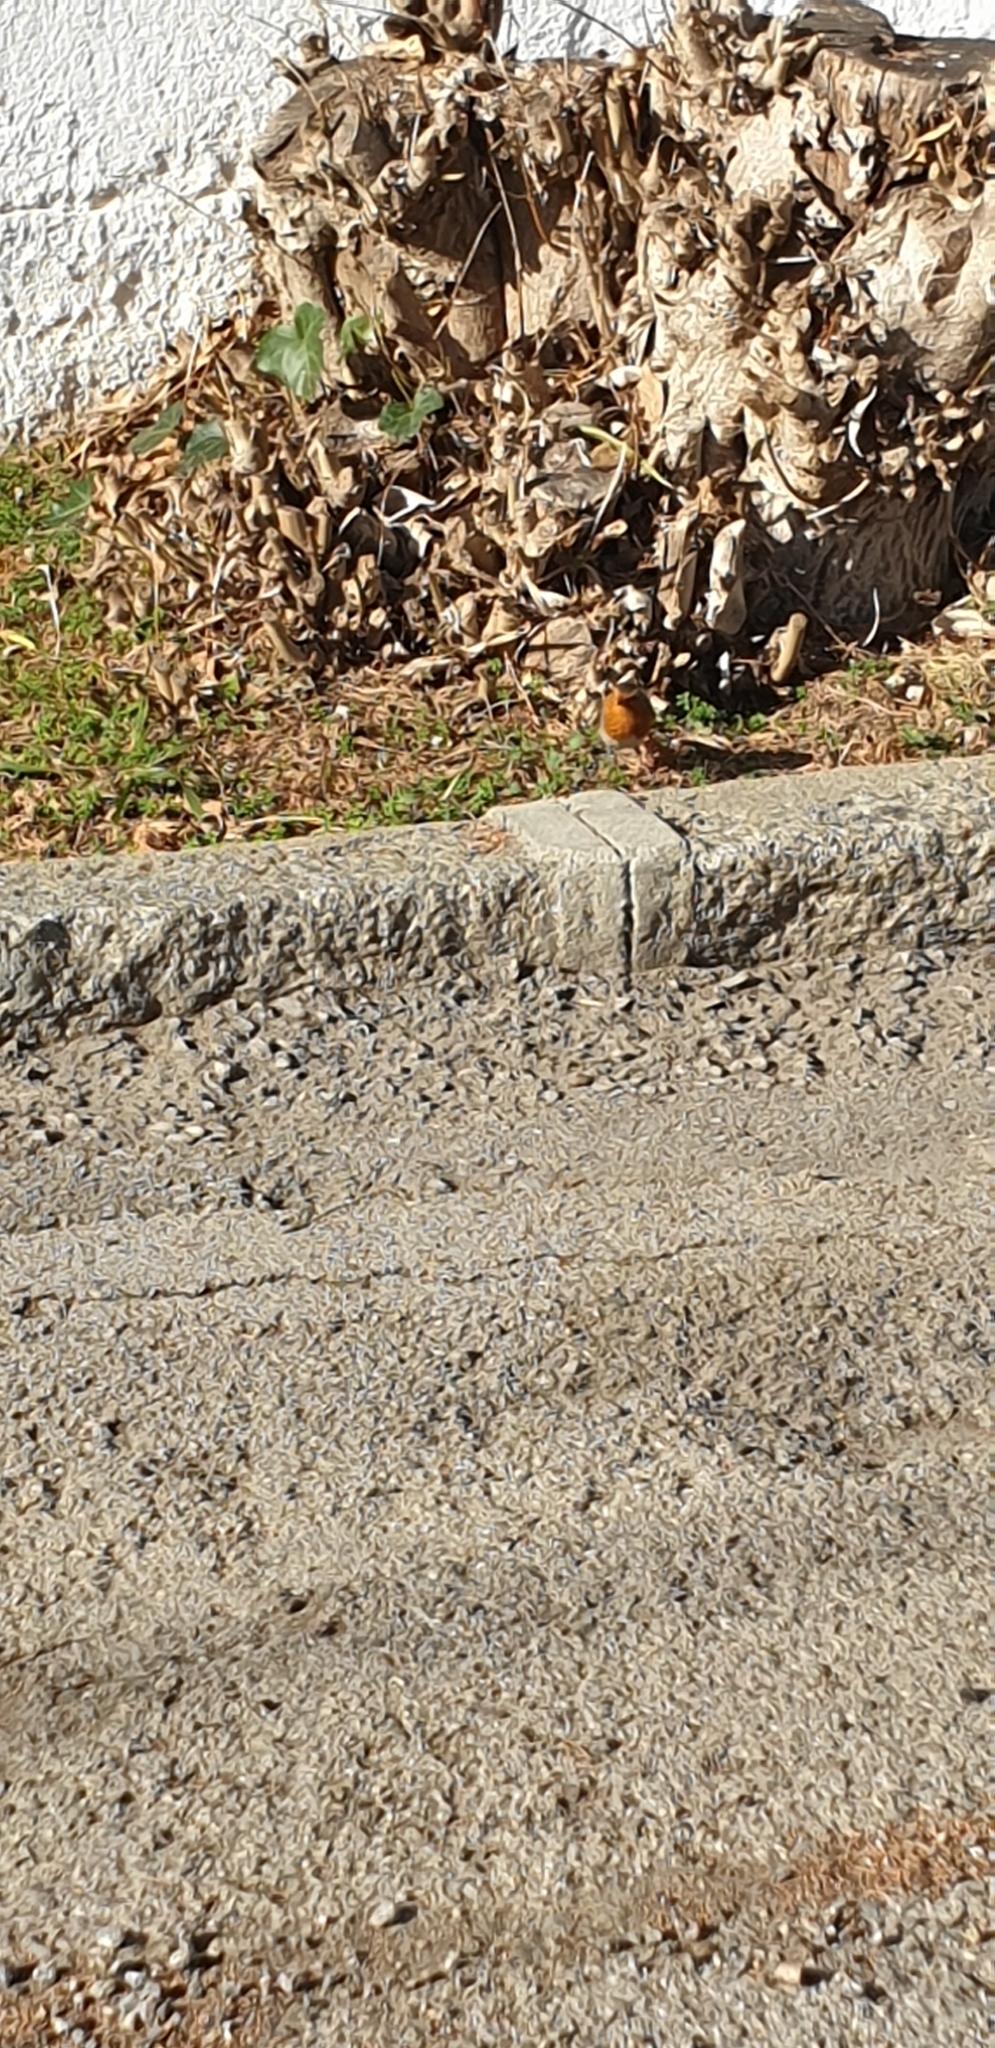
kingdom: Animalia
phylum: Chordata
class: Aves
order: Passeriformes
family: Muscicapidae
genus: Erithacus
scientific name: Erithacus rubecula
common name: European robin
